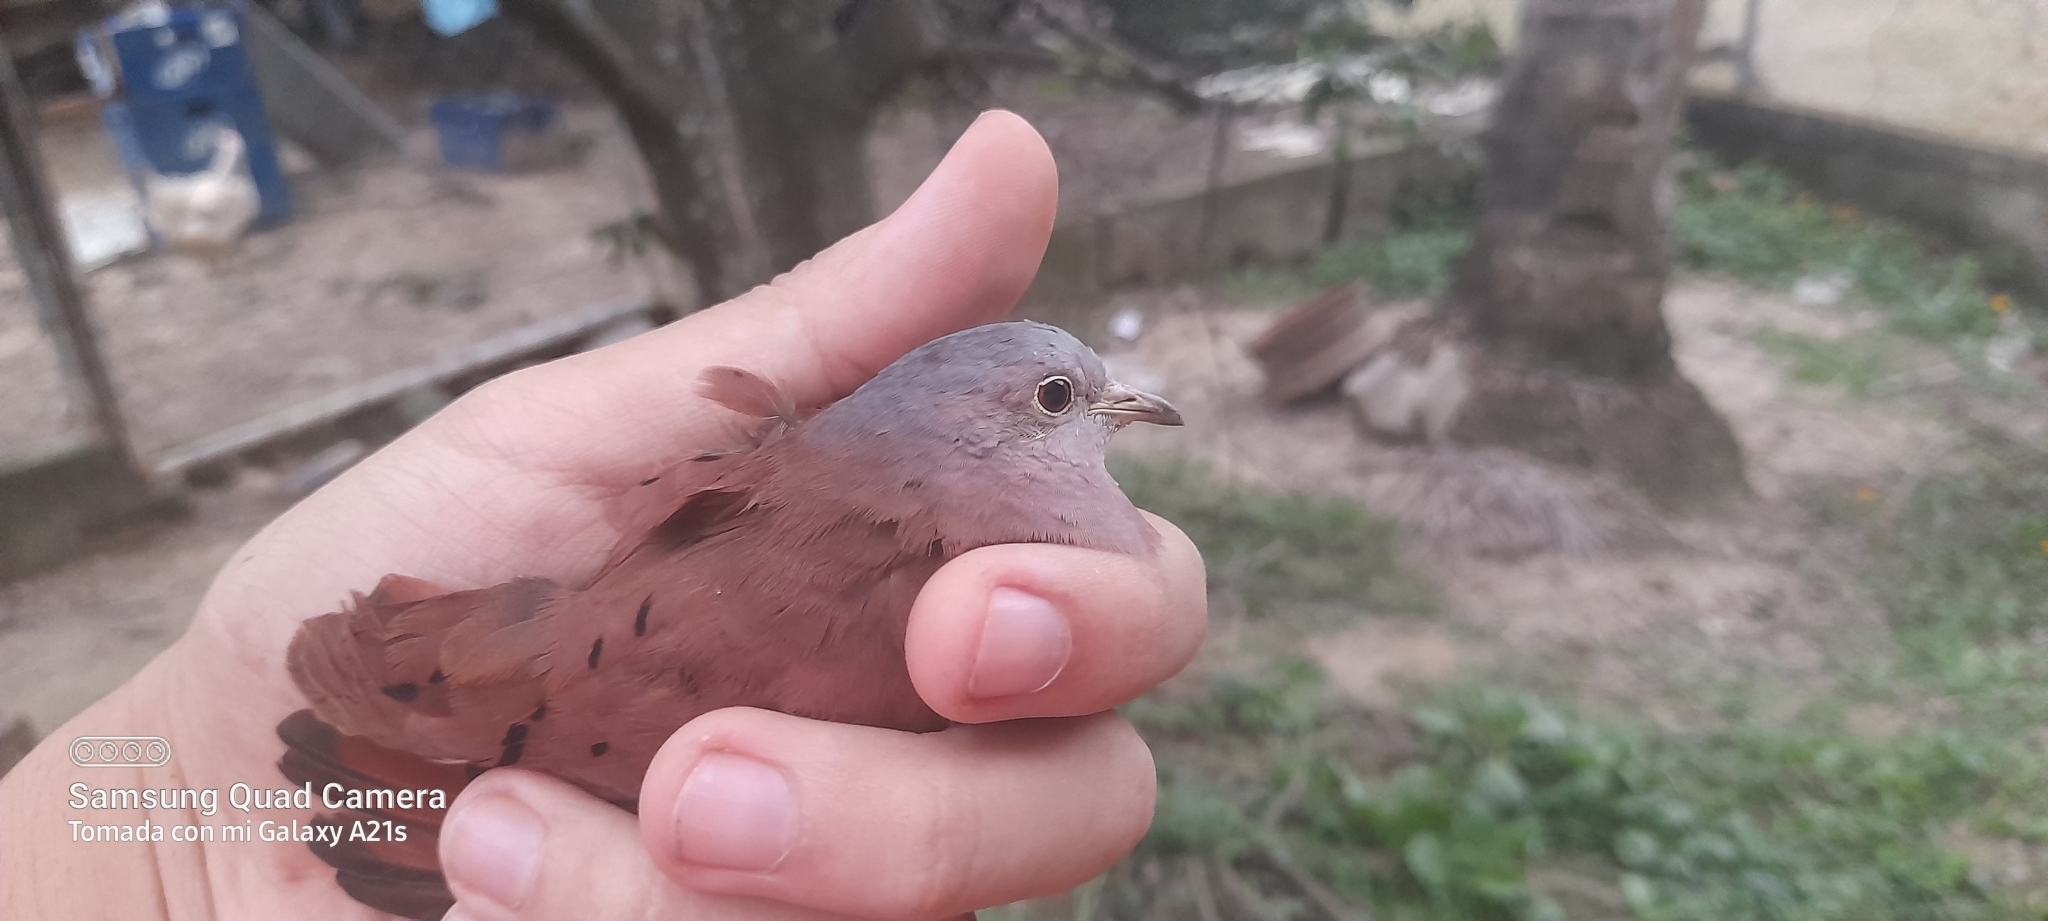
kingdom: Animalia
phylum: Chordata
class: Aves
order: Columbiformes
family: Columbidae
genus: Columbina
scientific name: Columbina talpacoti
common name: Ruddy ground dove
